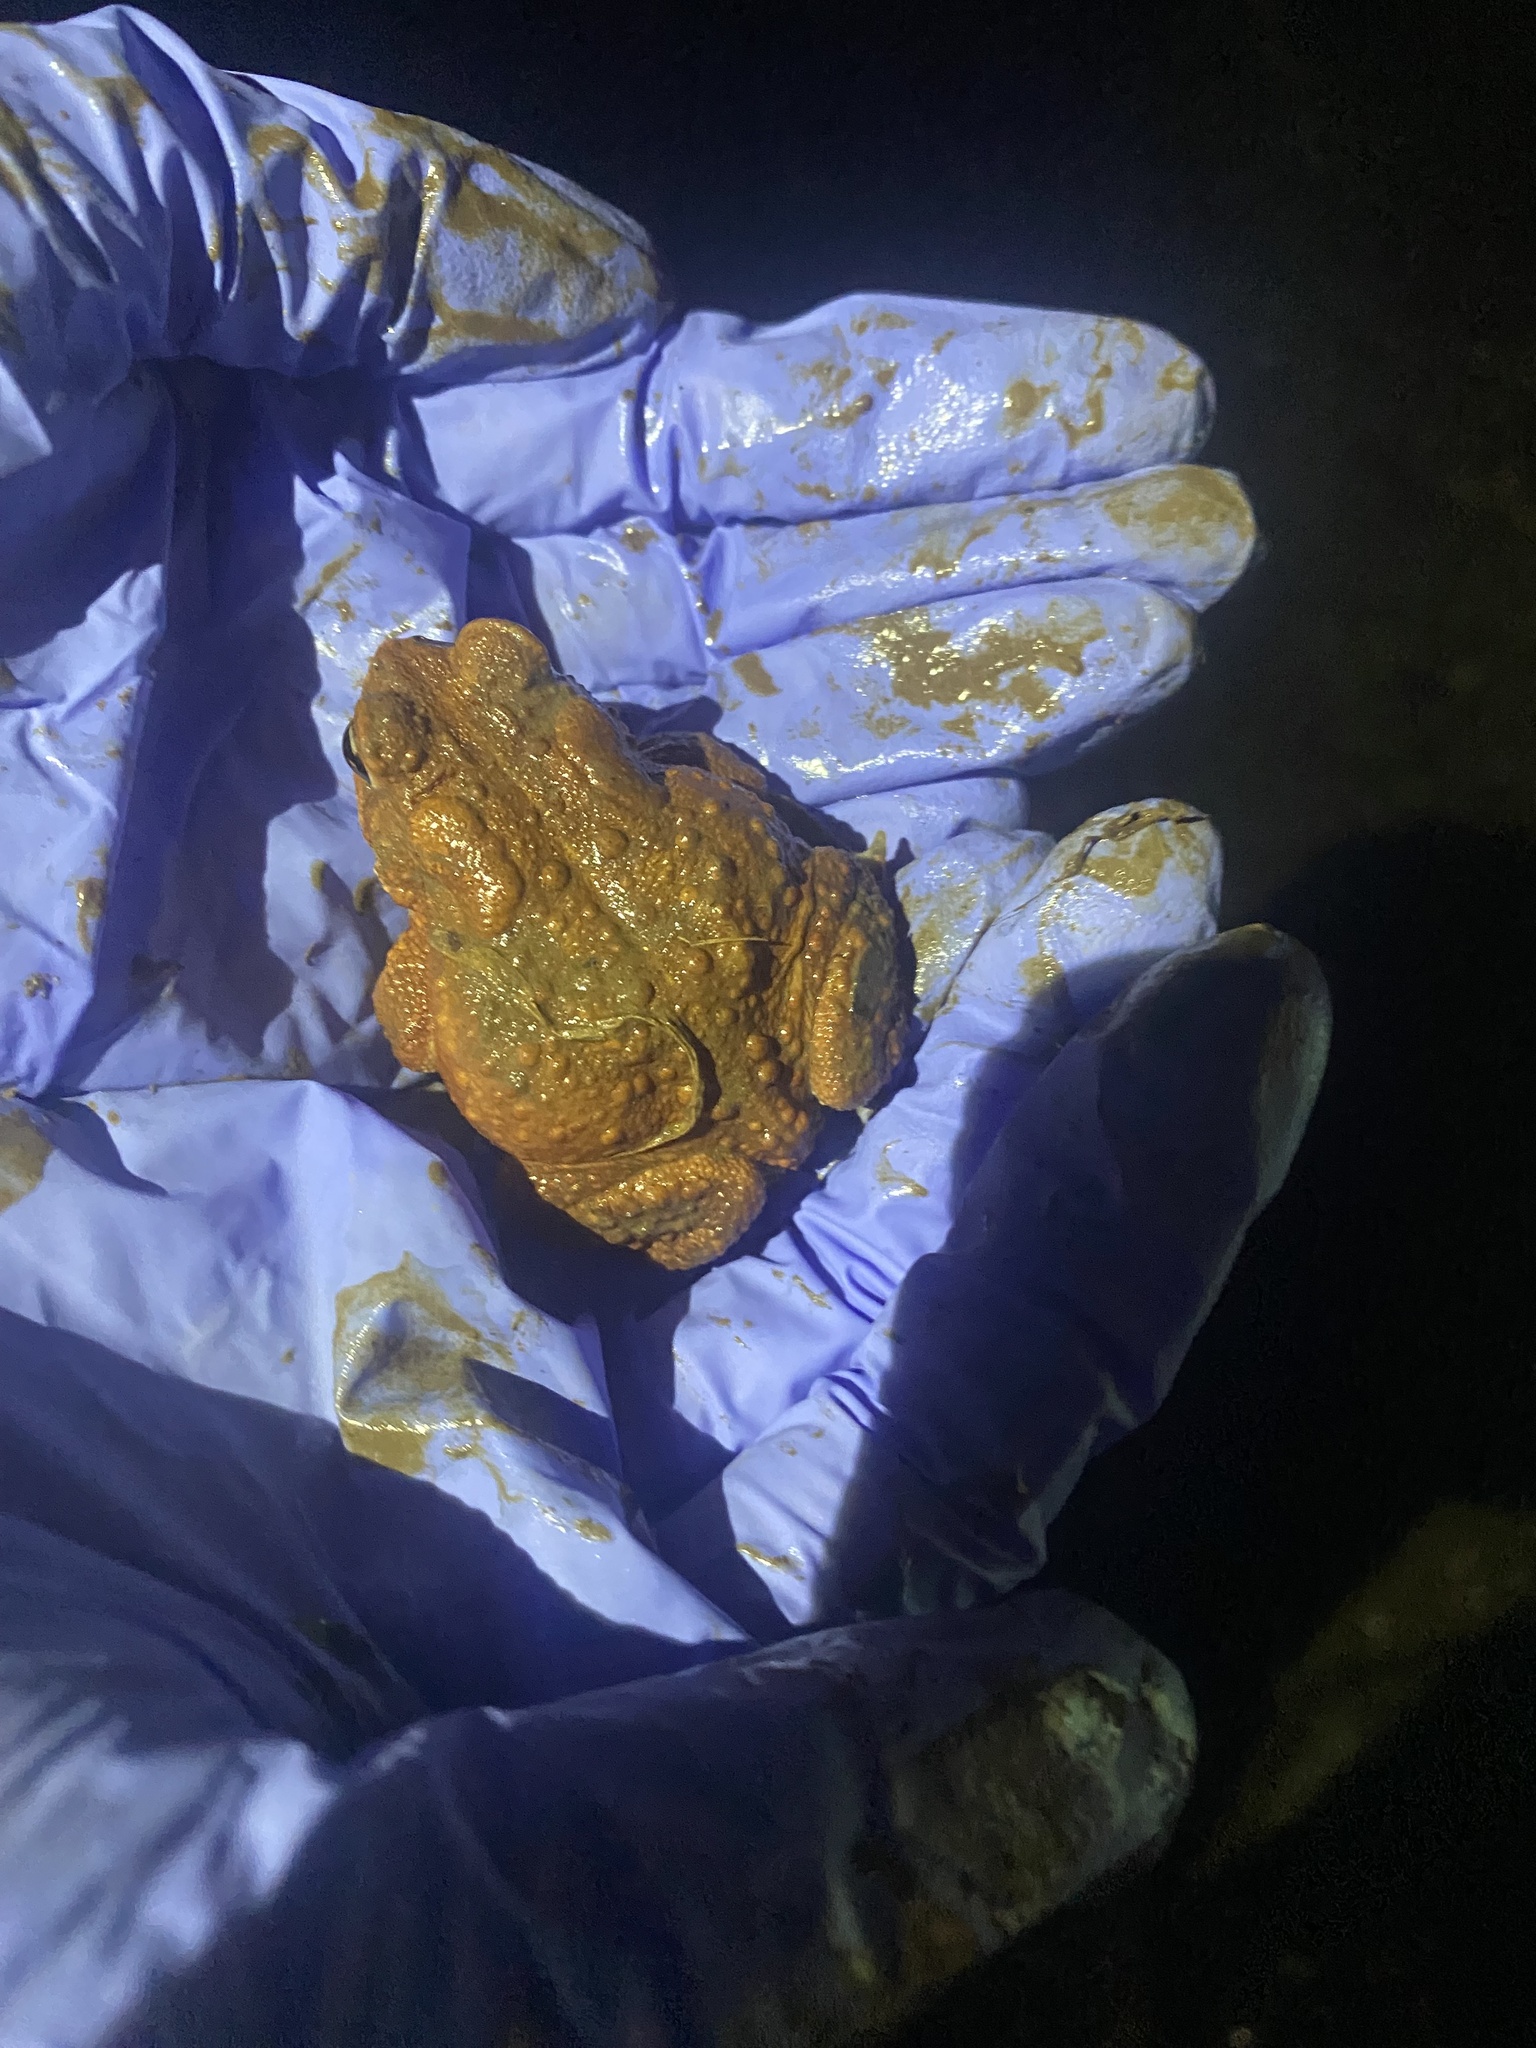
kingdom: Animalia
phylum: Chordata
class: Amphibia
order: Anura
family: Bufonidae
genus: Anaxyrus
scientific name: Anaxyrus americanus
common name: American toad
